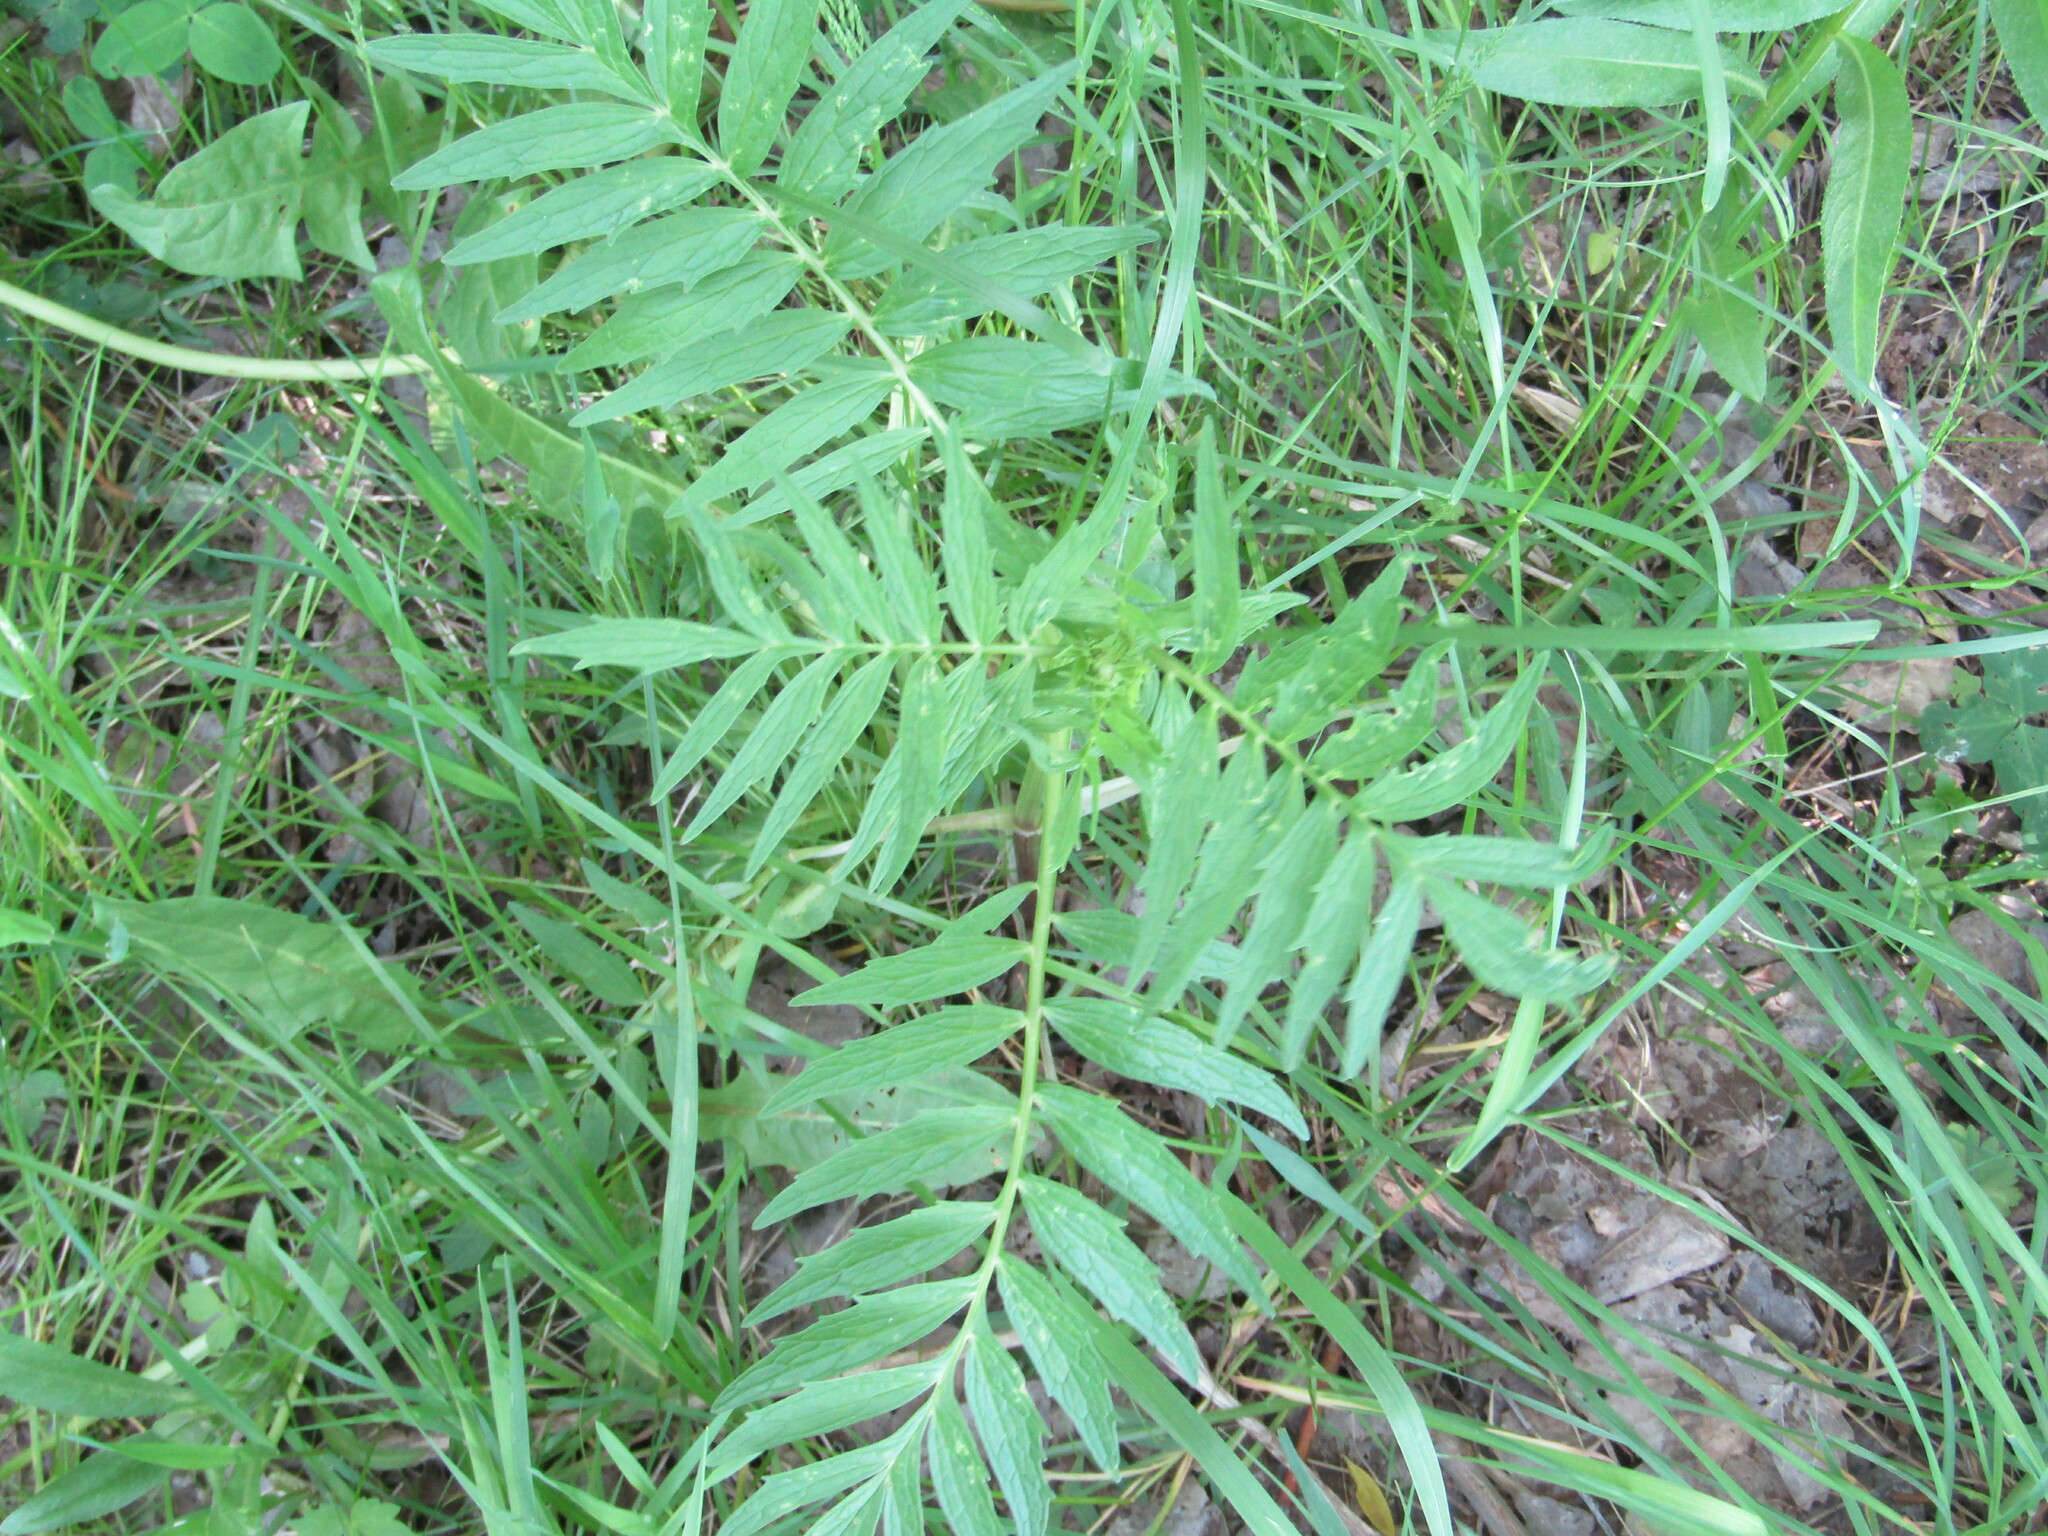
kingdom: Plantae
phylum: Tracheophyta
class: Magnoliopsida
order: Dipsacales
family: Caprifoliaceae
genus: Valeriana
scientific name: Valeriana officinalis
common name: Common valerian
